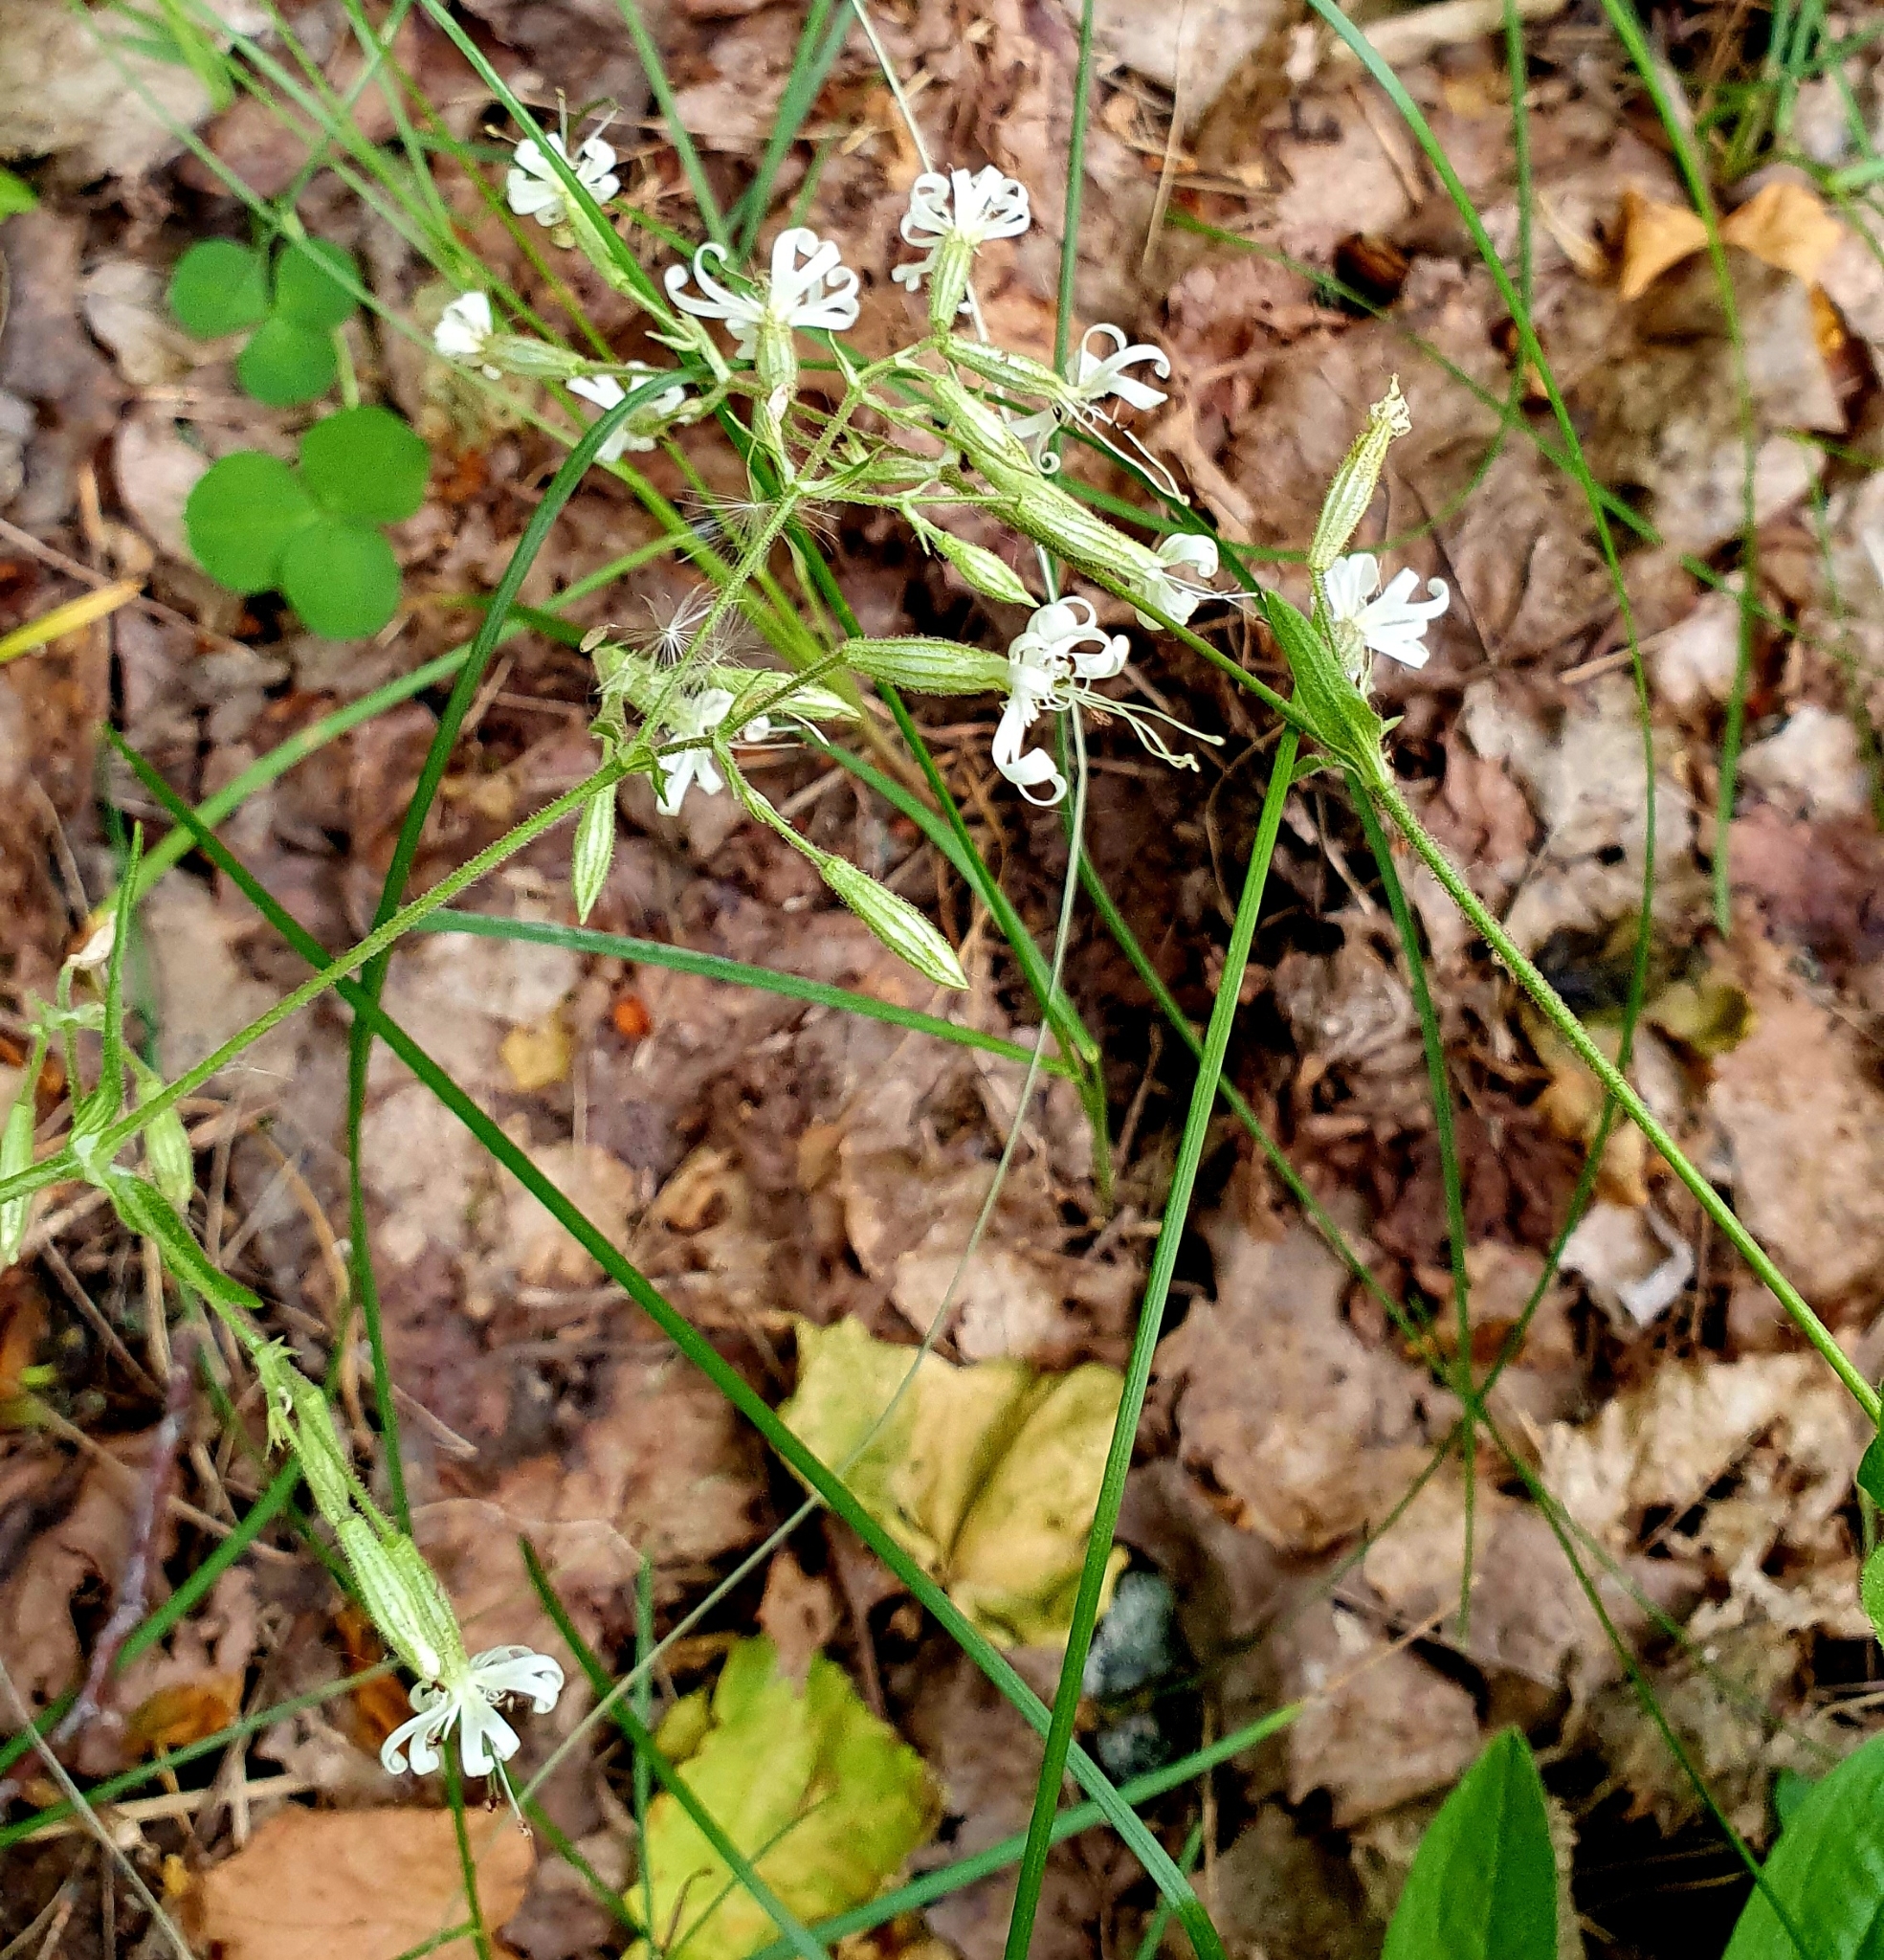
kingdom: Plantae
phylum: Tracheophyta
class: Magnoliopsida
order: Caryophyllales
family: Caryophyllaceae
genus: Silene
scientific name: Silene nutans
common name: Nottingham catchfly
